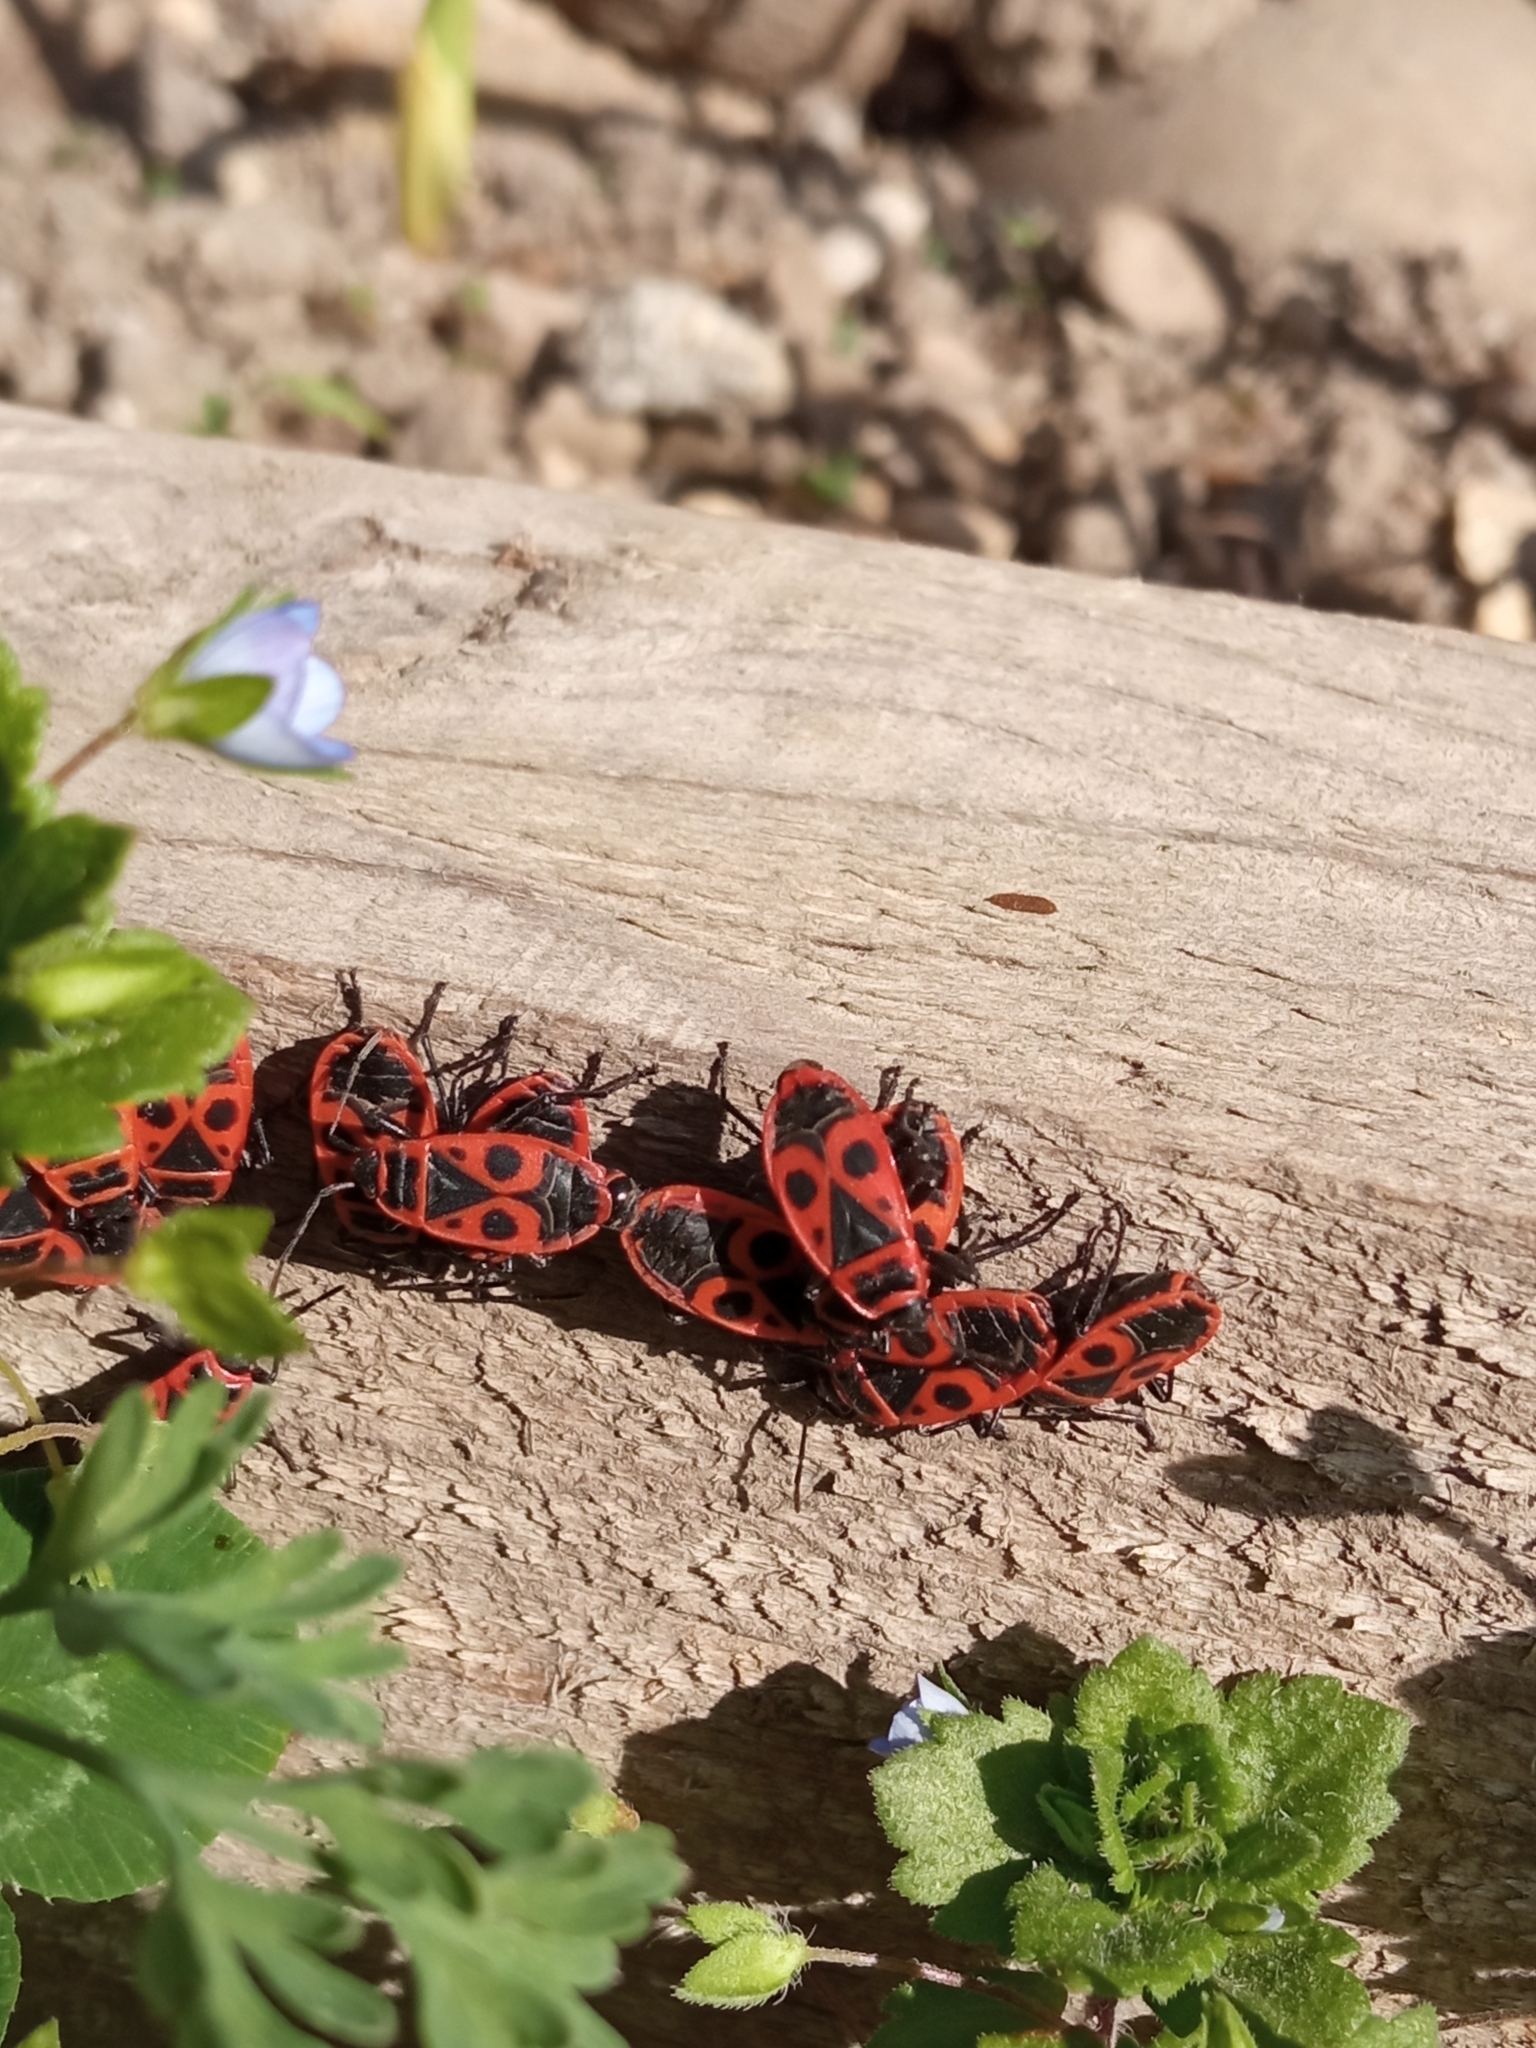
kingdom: Animalia
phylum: Arthropoda
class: Insecta
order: Hemiptera
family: Pyrrhocoridae
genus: Pyrrhocoris
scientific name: Pyrrhocoris apterus
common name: Firebug
